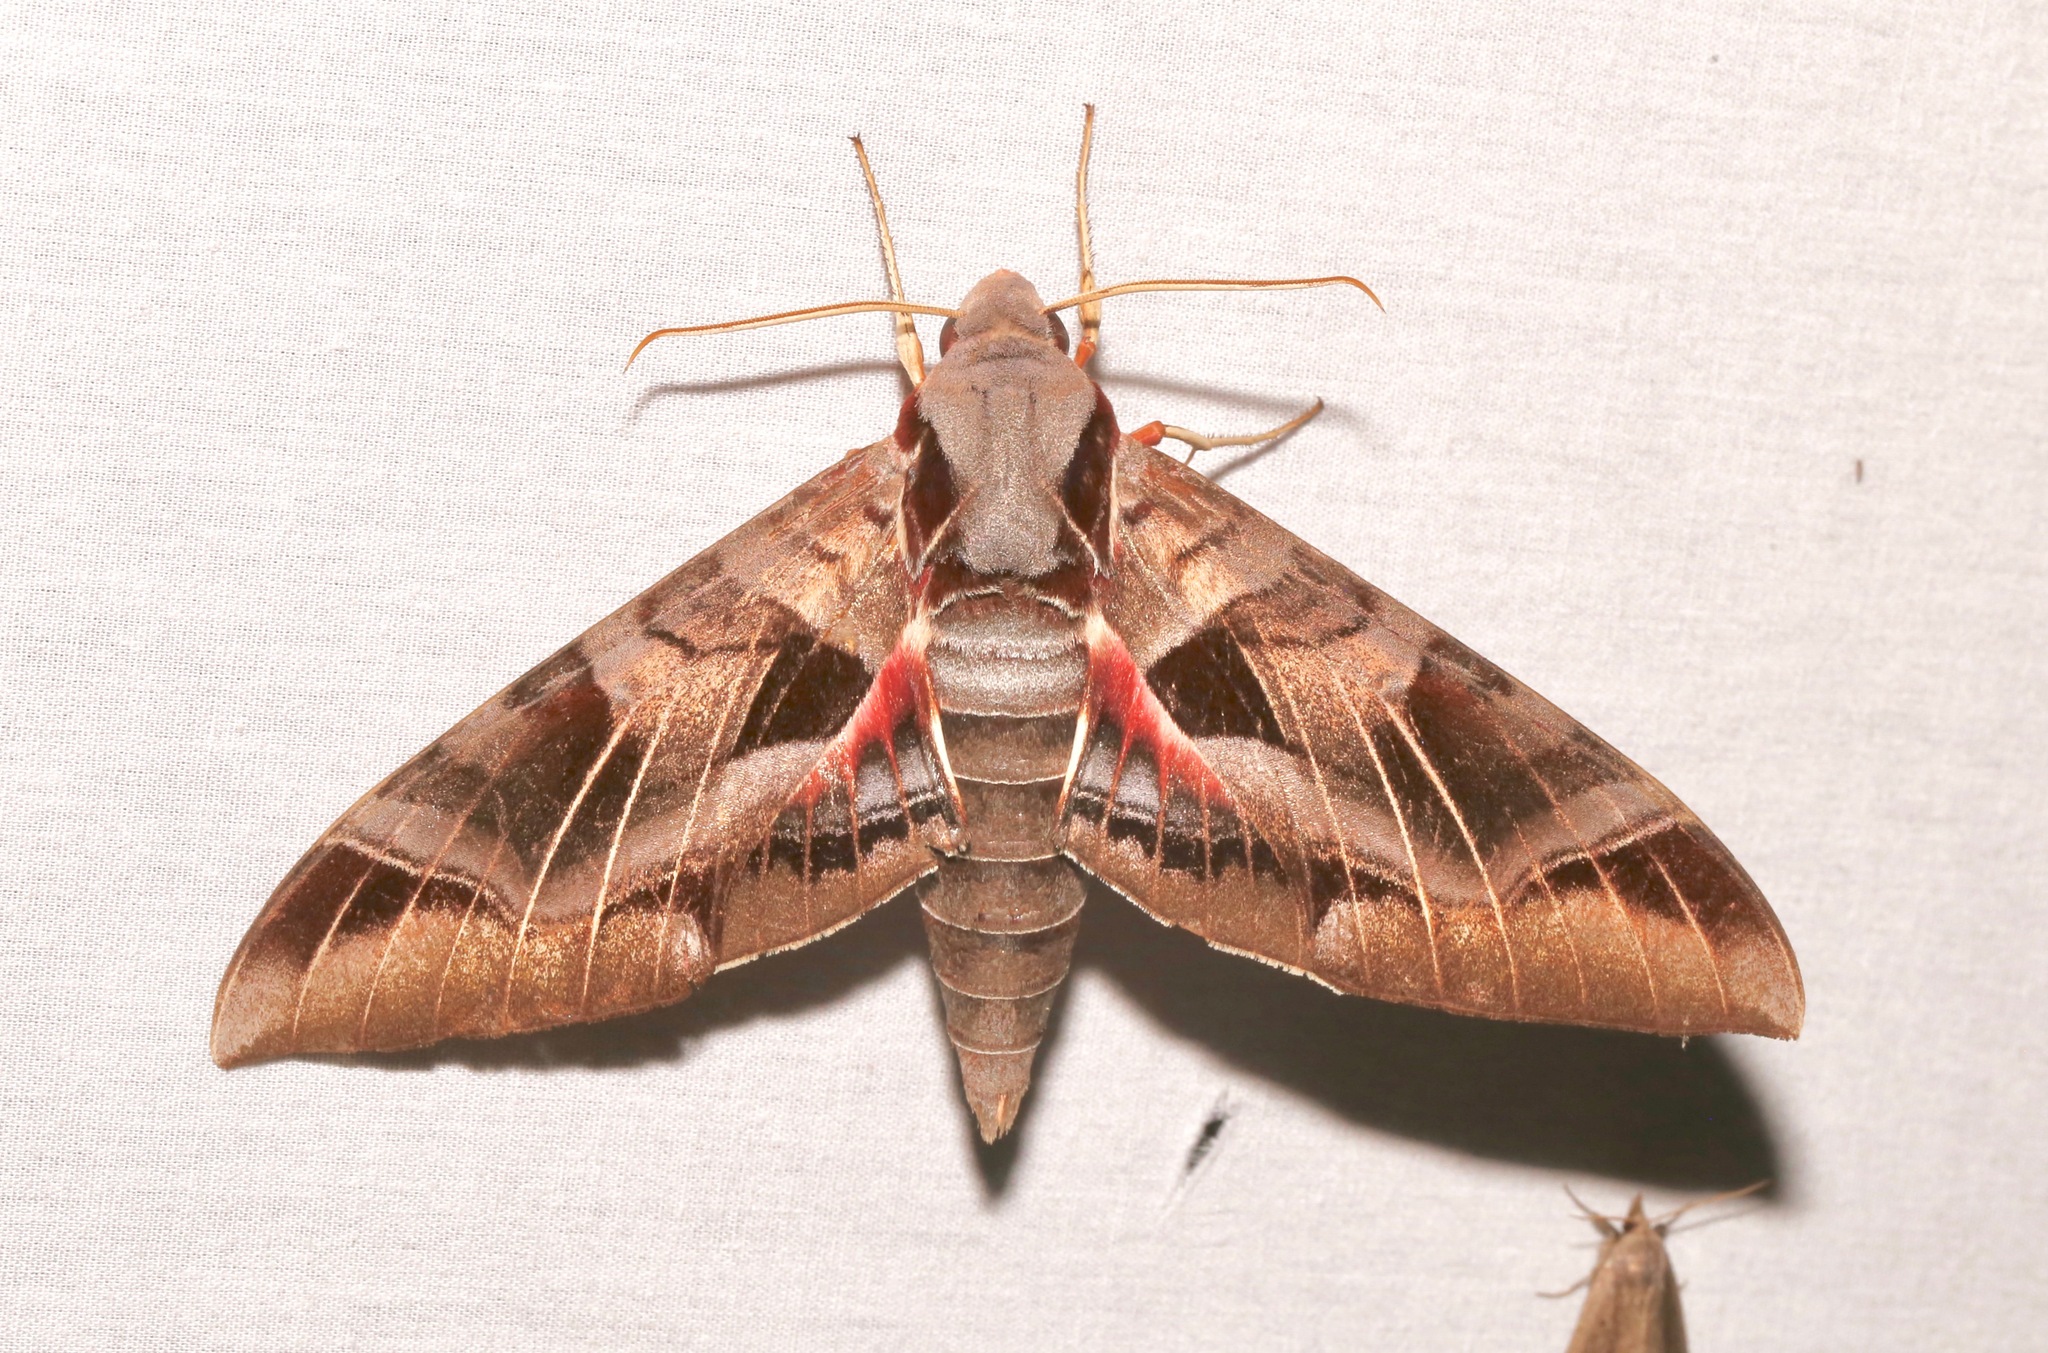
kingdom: Animalia
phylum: Arthropoda
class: Insecta
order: Lepidoptera
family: Sphingidae
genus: Eumorpha
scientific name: Eumorpha typhon
